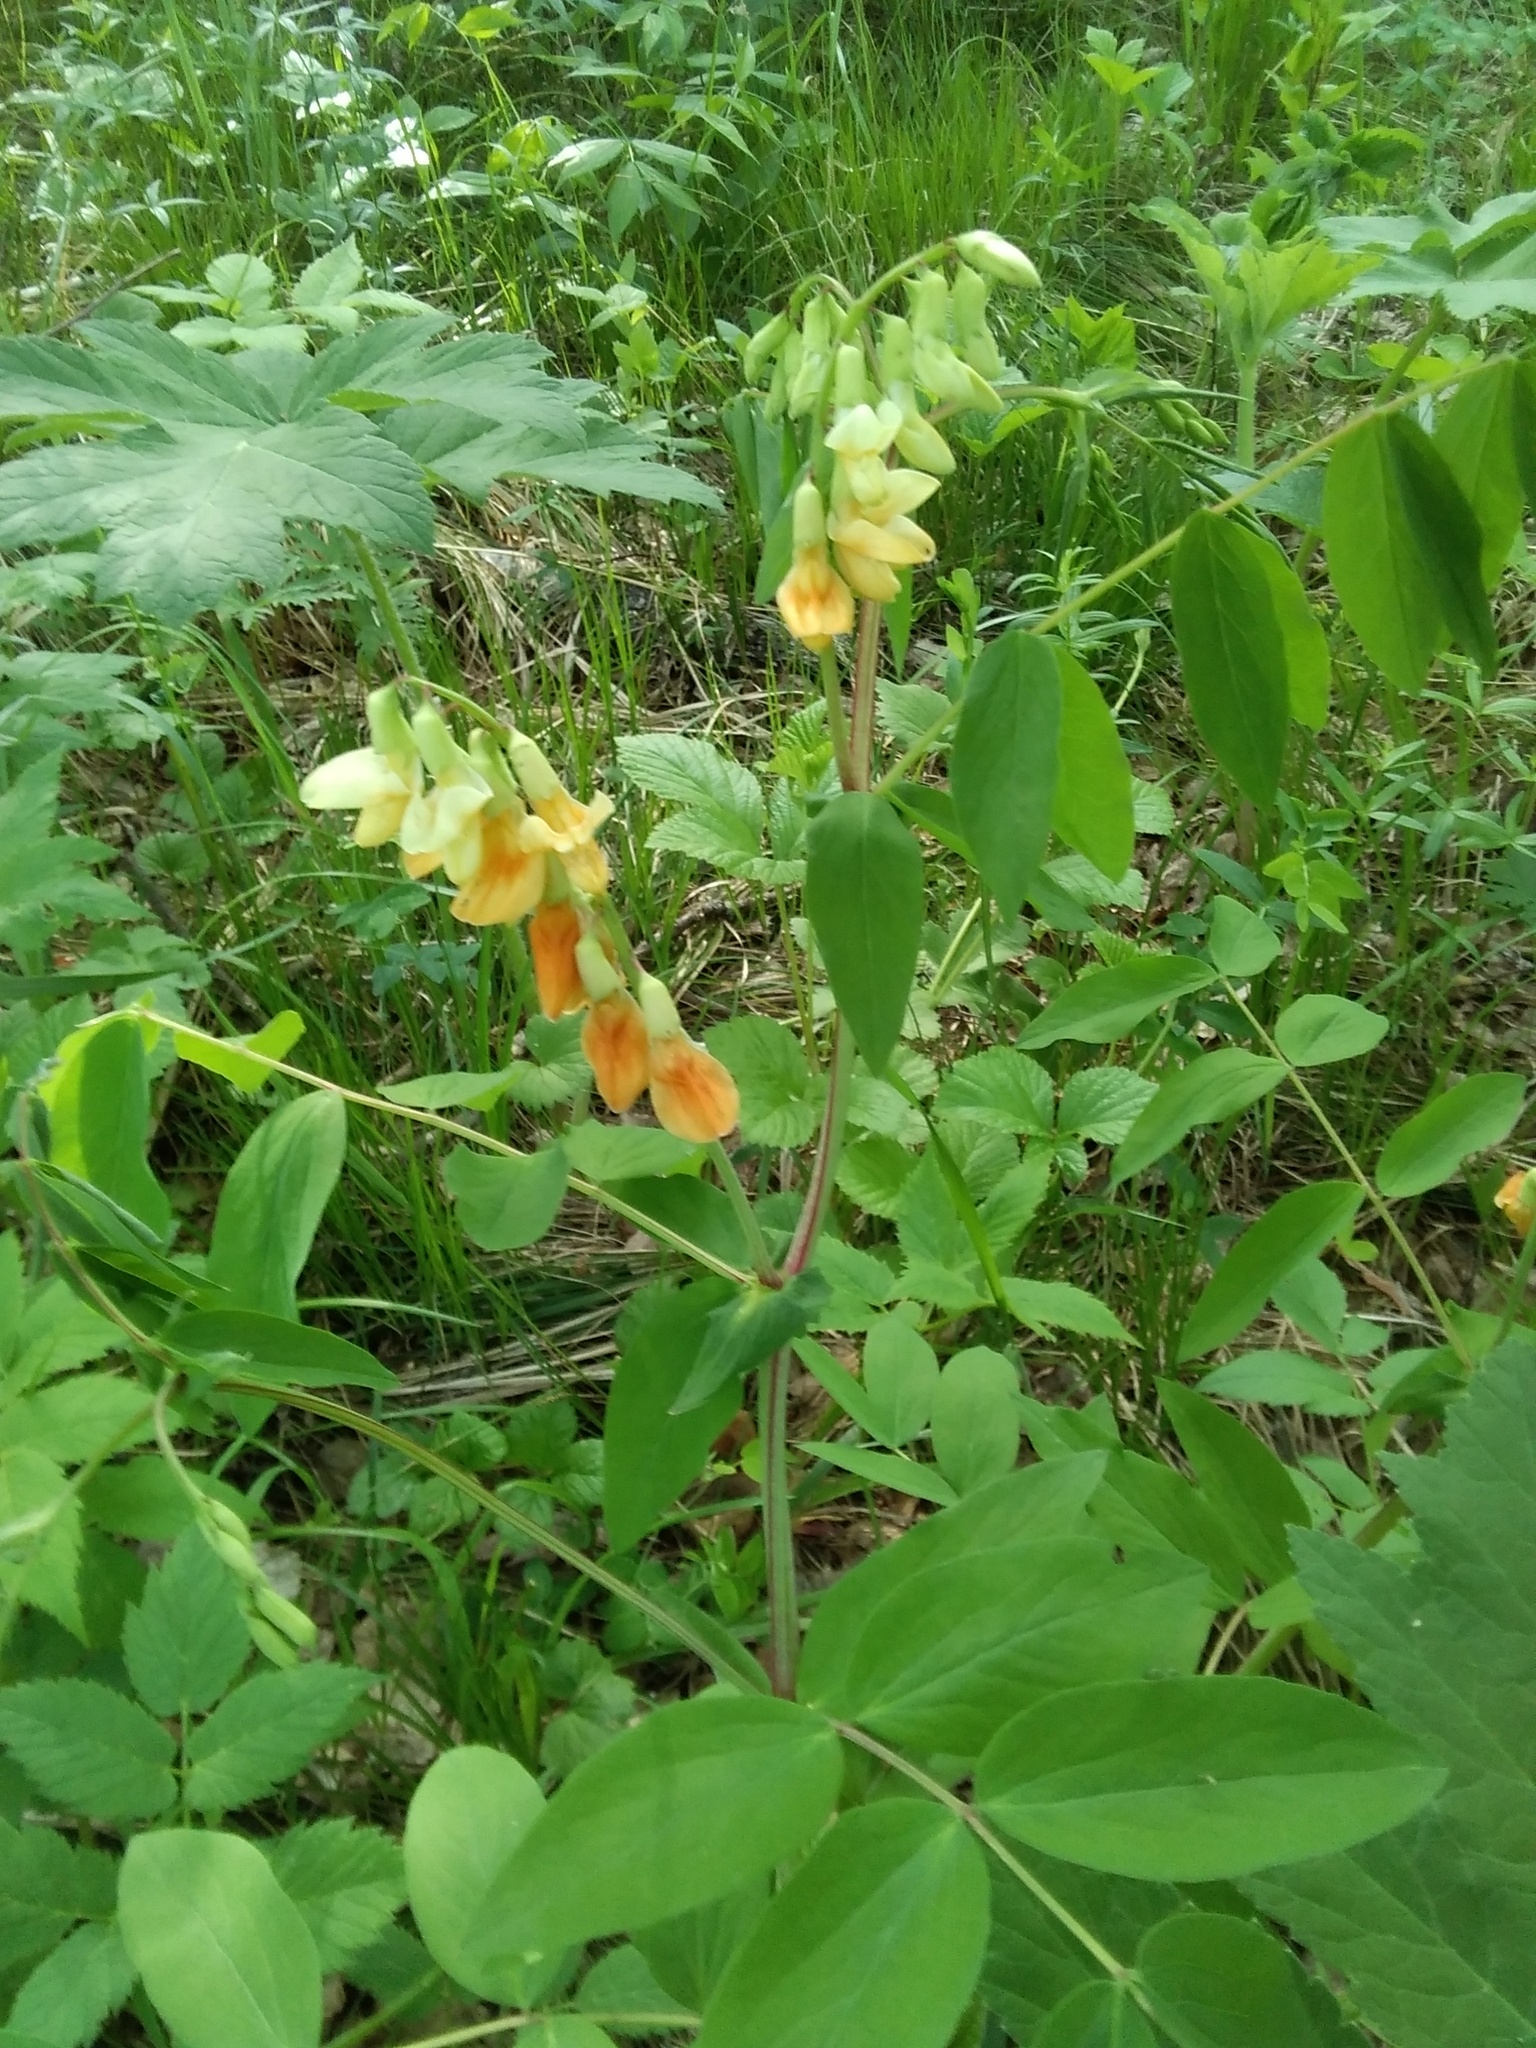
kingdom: Plantae
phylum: Tracheophyta
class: Magnoliopsida
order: Fabales
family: Fabaceae
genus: Lathyrus
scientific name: Lathyrus gmelinii
